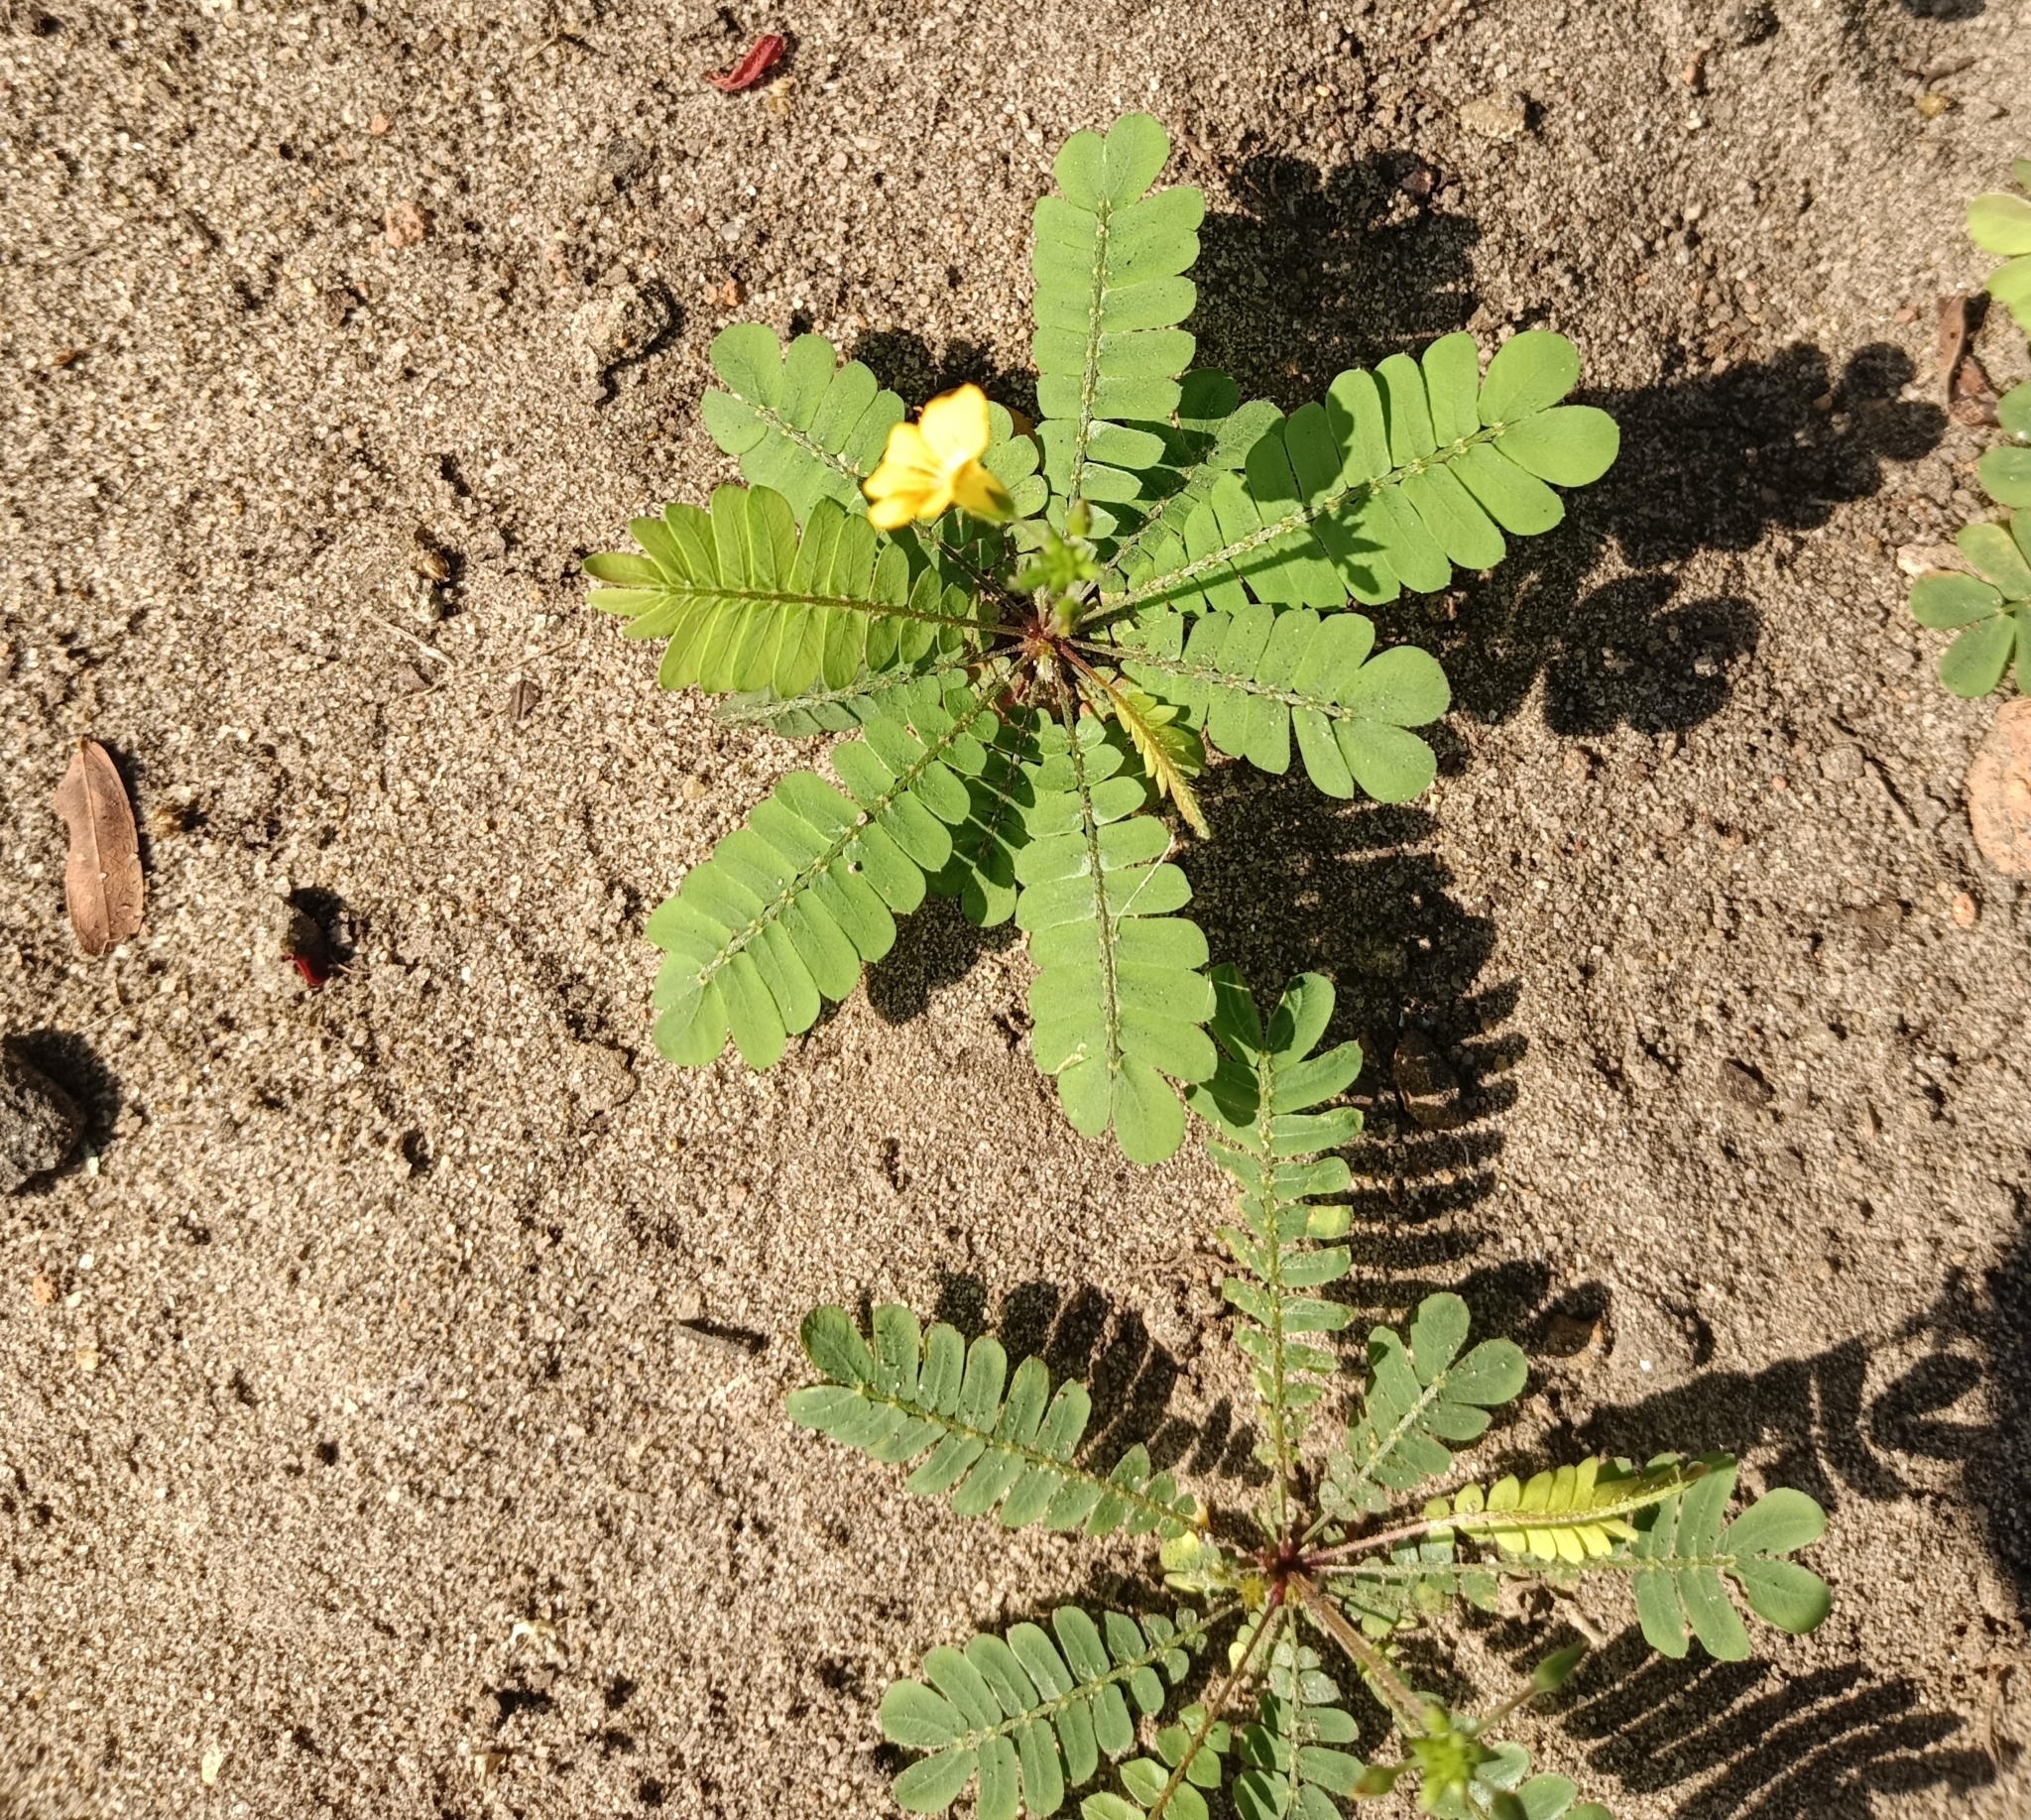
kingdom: Plantae
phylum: Tracheophyta
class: Magnoliopsida
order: Oxalidales
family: Oxalidaceae
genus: Biophytum
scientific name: Biophytum sensitivum
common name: Lifeplant
